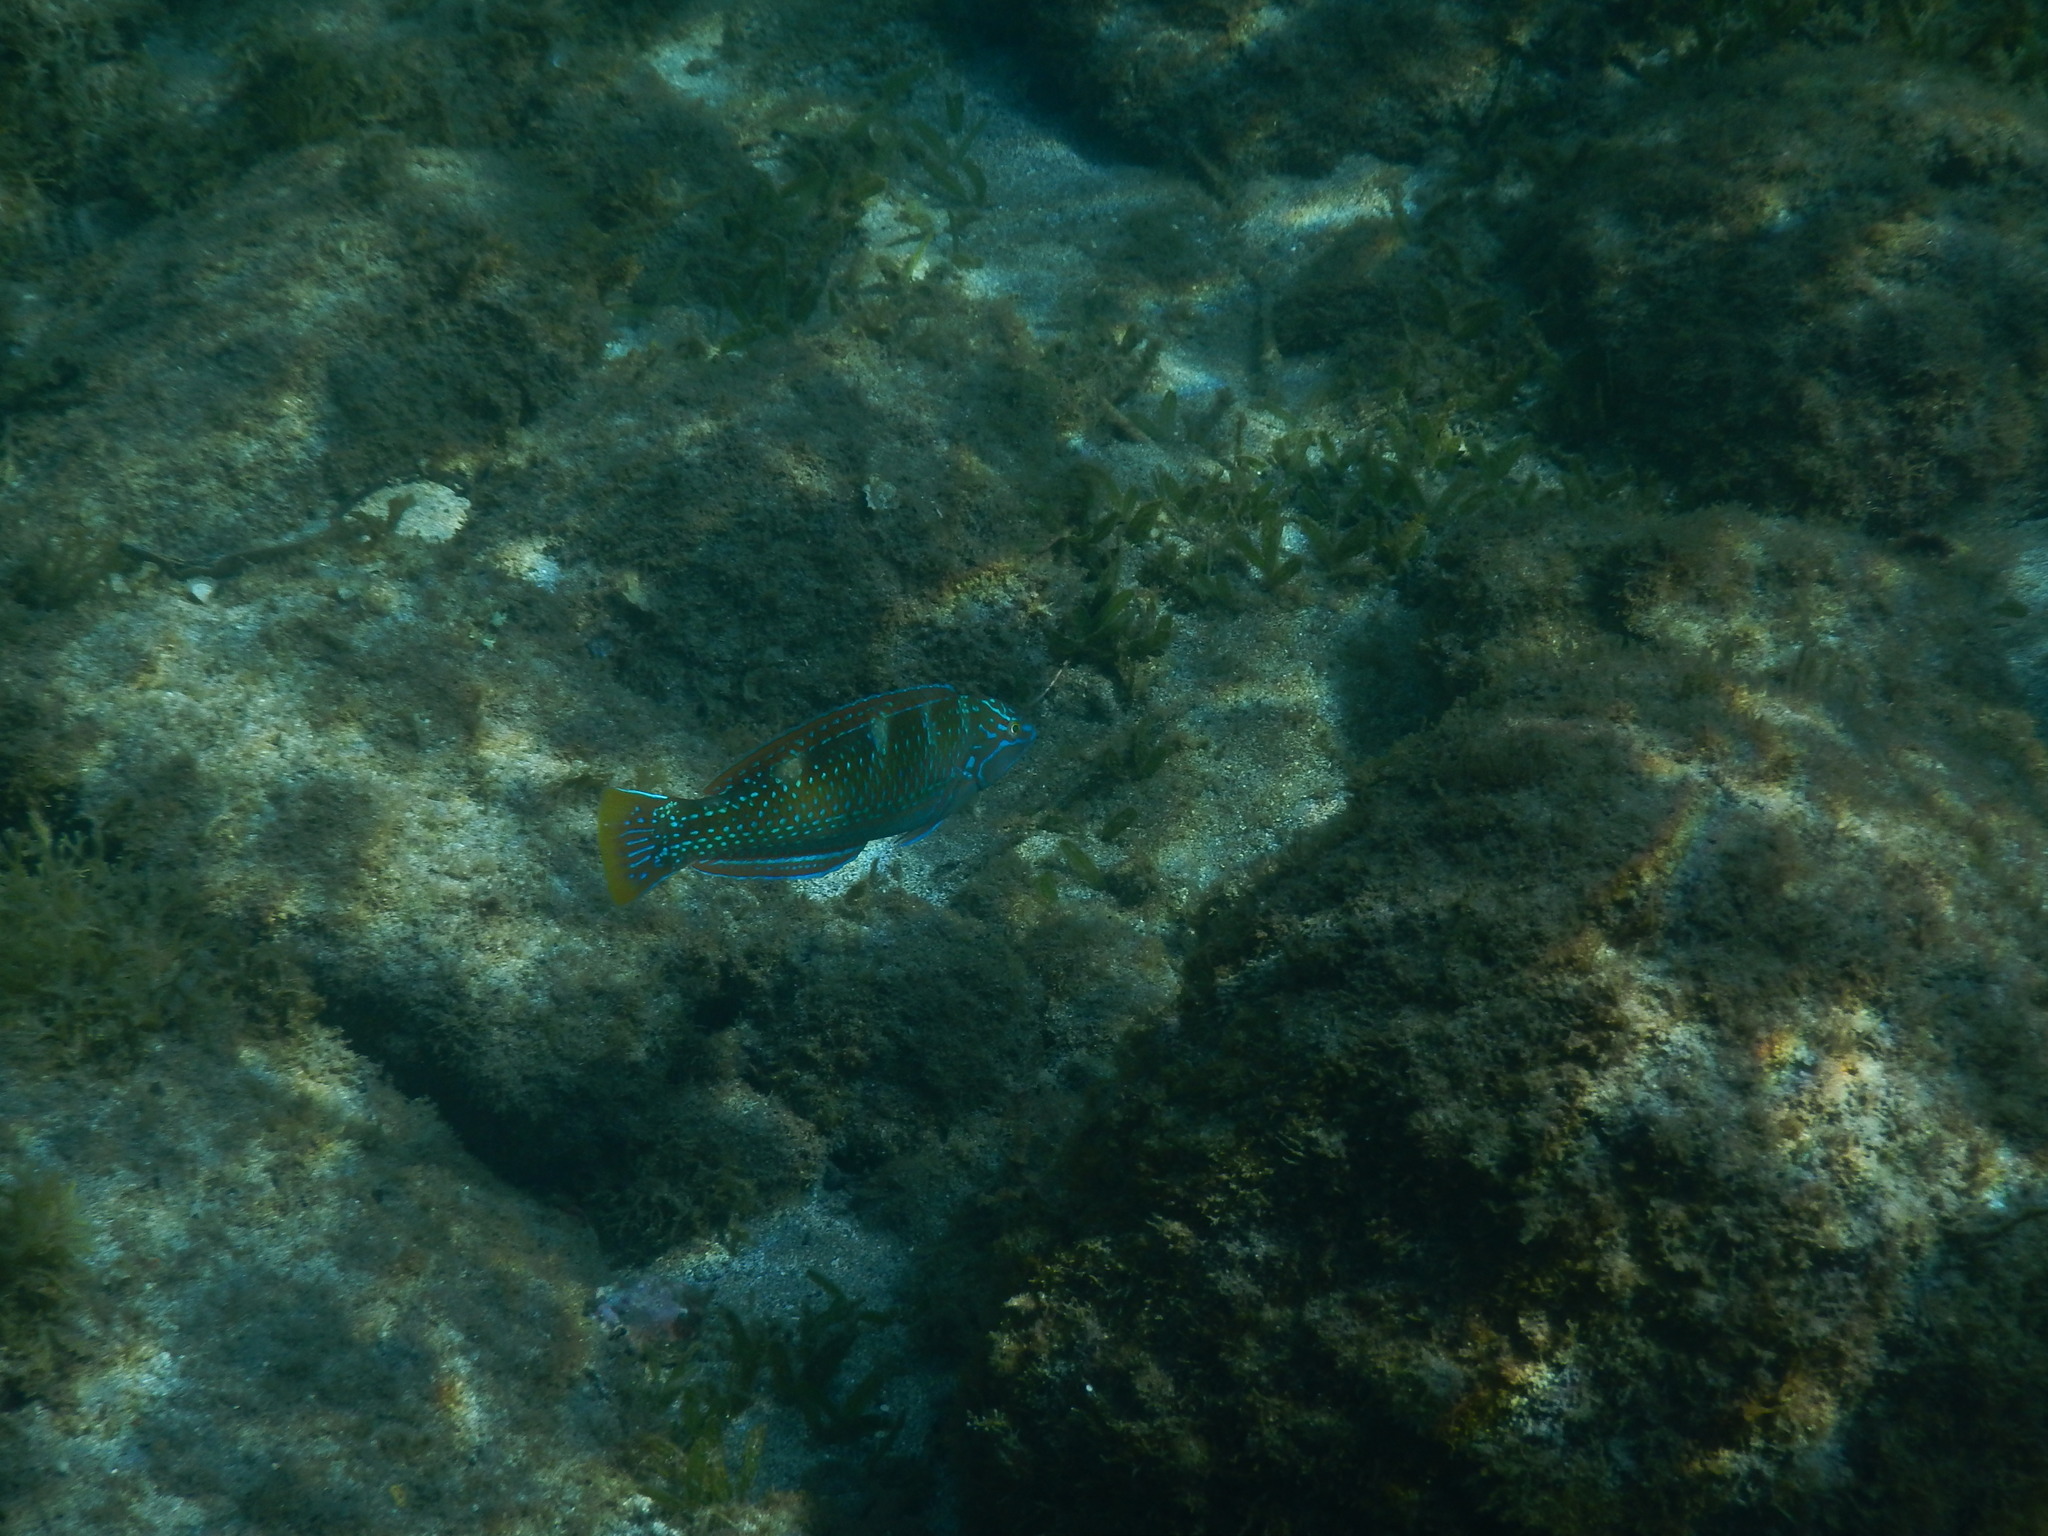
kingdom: Animalia
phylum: Chordata
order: Perciformes
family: Labridae
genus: Halichoeres
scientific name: Halichoeres radiatus
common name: Puddingwife
